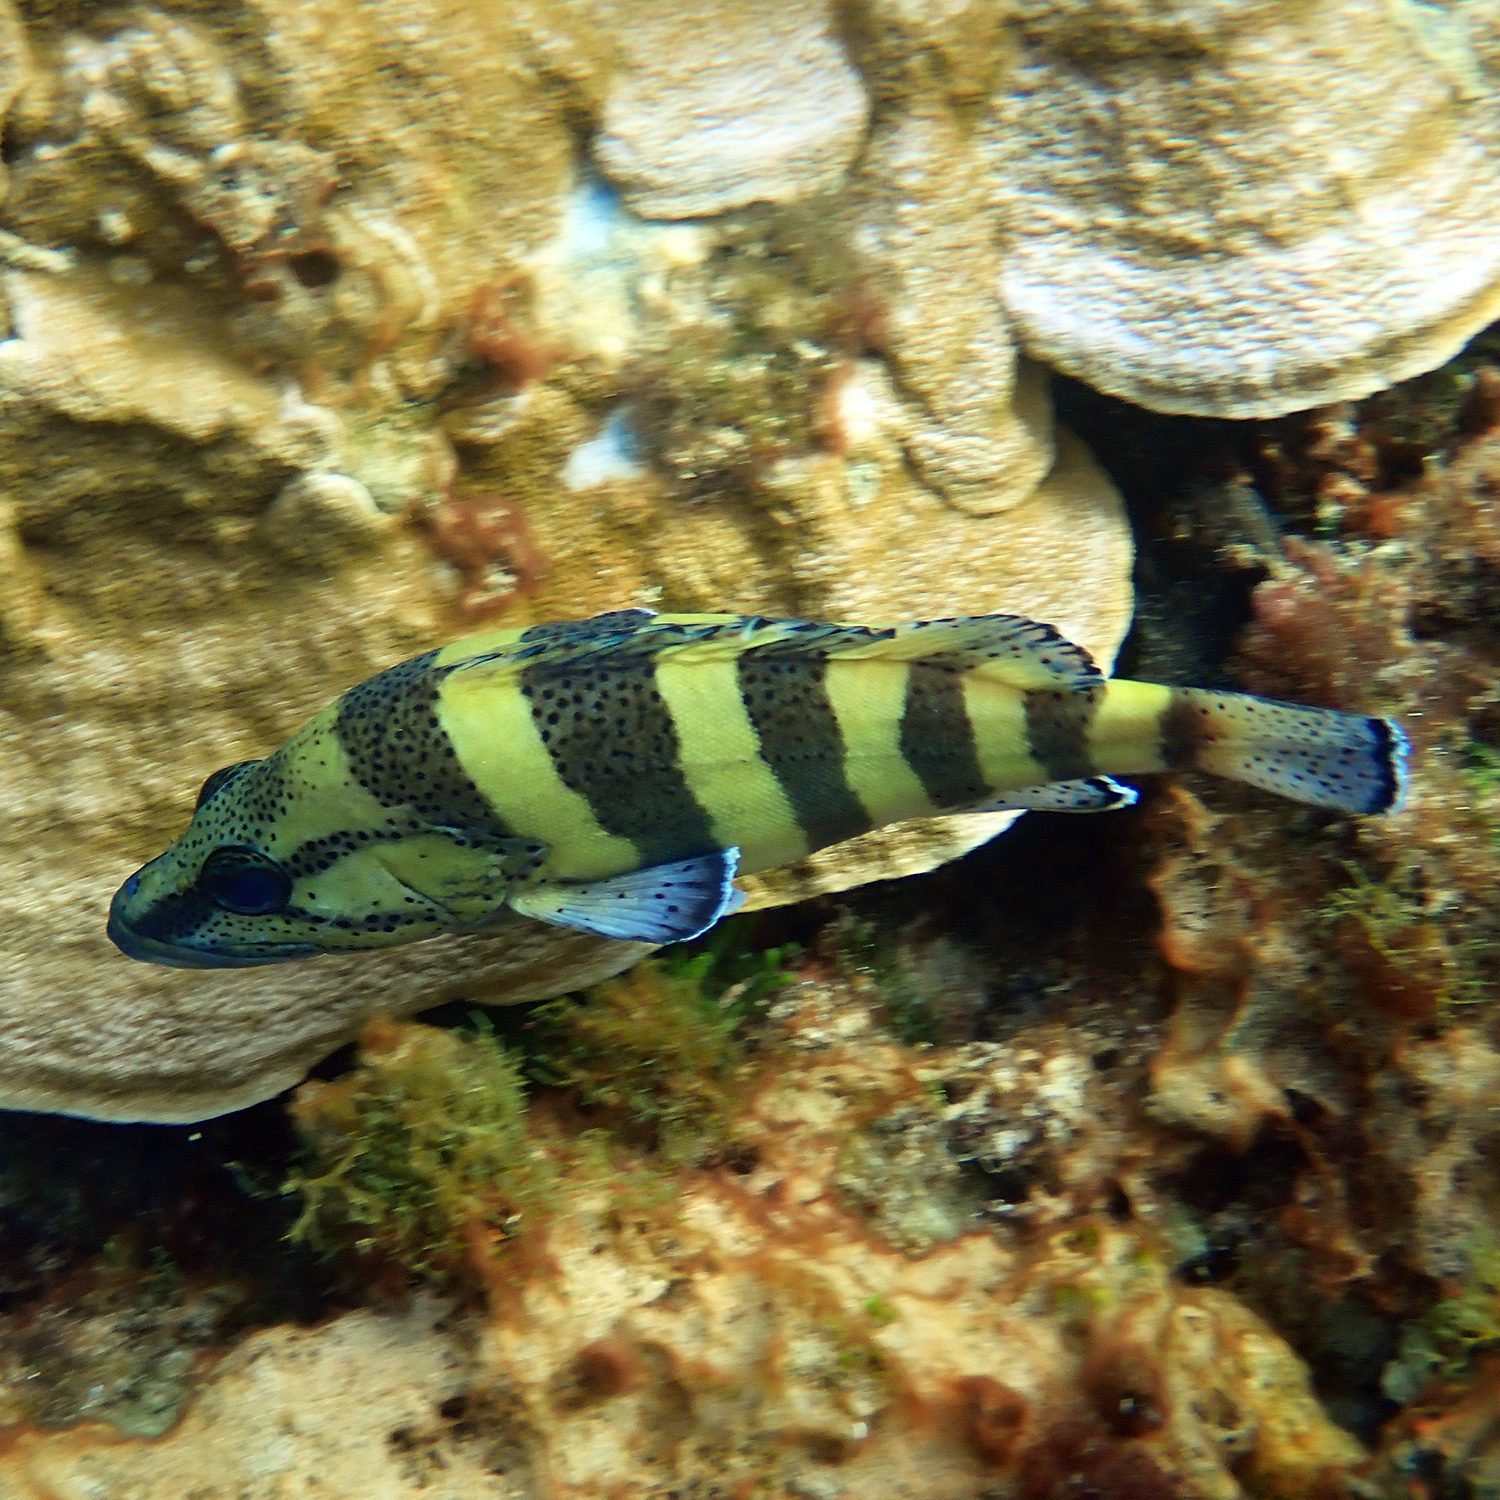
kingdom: Animalia
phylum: Chordata
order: Perciformes
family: Serranidae
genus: Acanthistius
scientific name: Acanthistius cinctus
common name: Girdled rock cod
